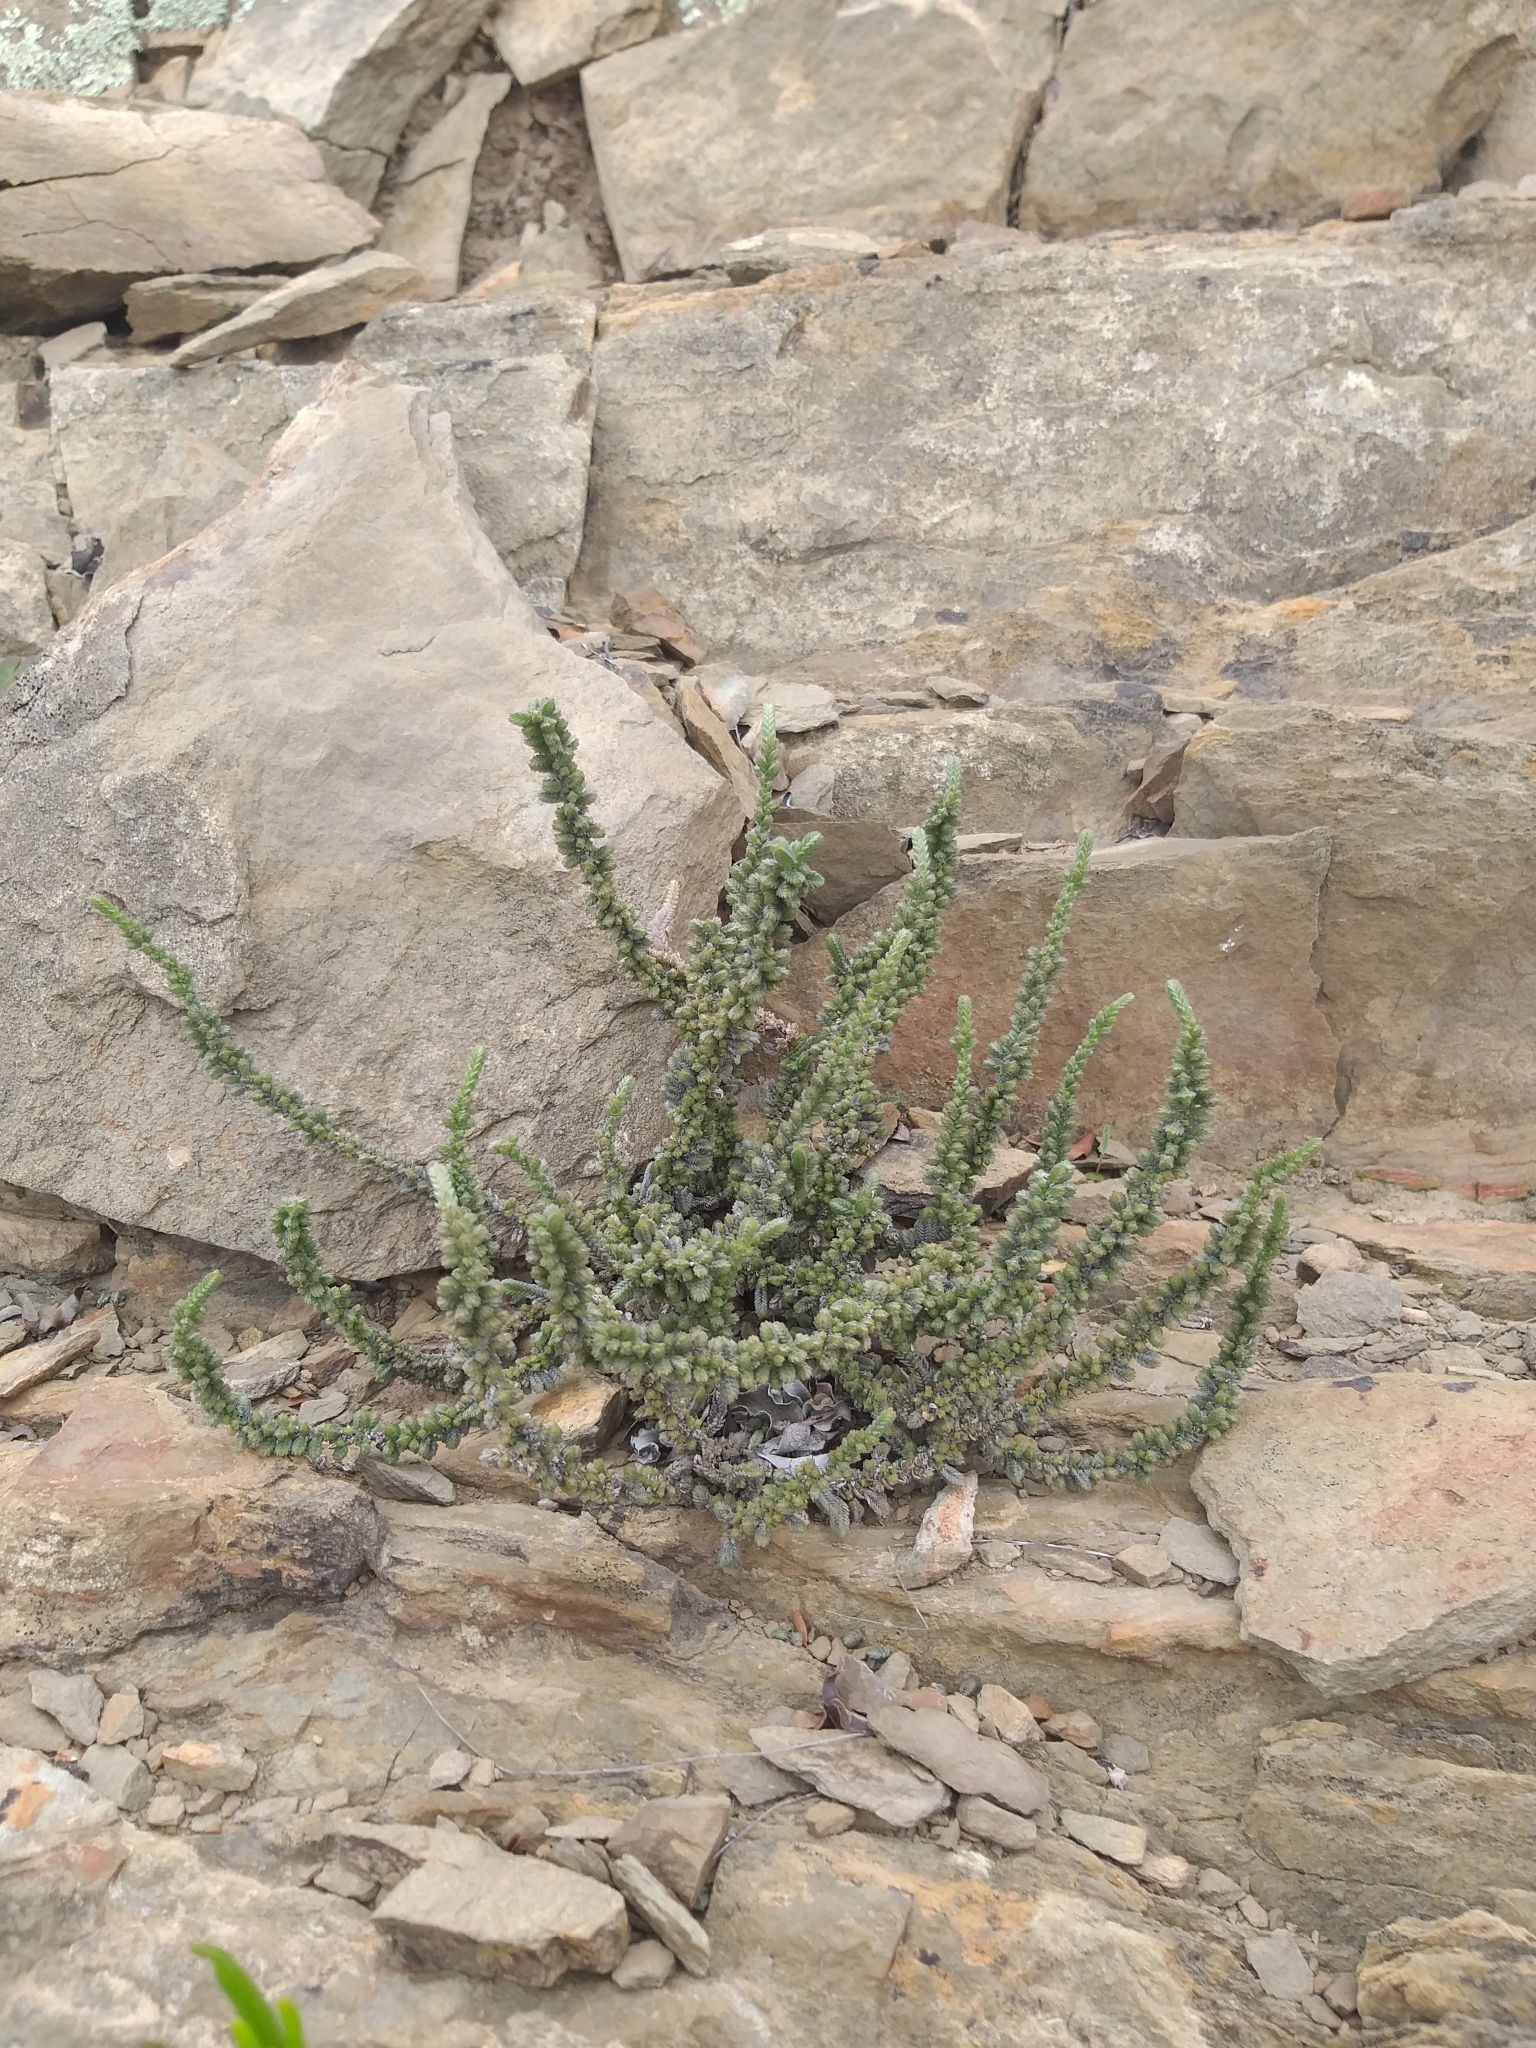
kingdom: Plantae
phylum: Tracheophyta
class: Magnoliopsida
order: Saxifragales
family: Crassulaceae
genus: Crassula
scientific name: Crassula muscosa
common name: Toy-cypress
